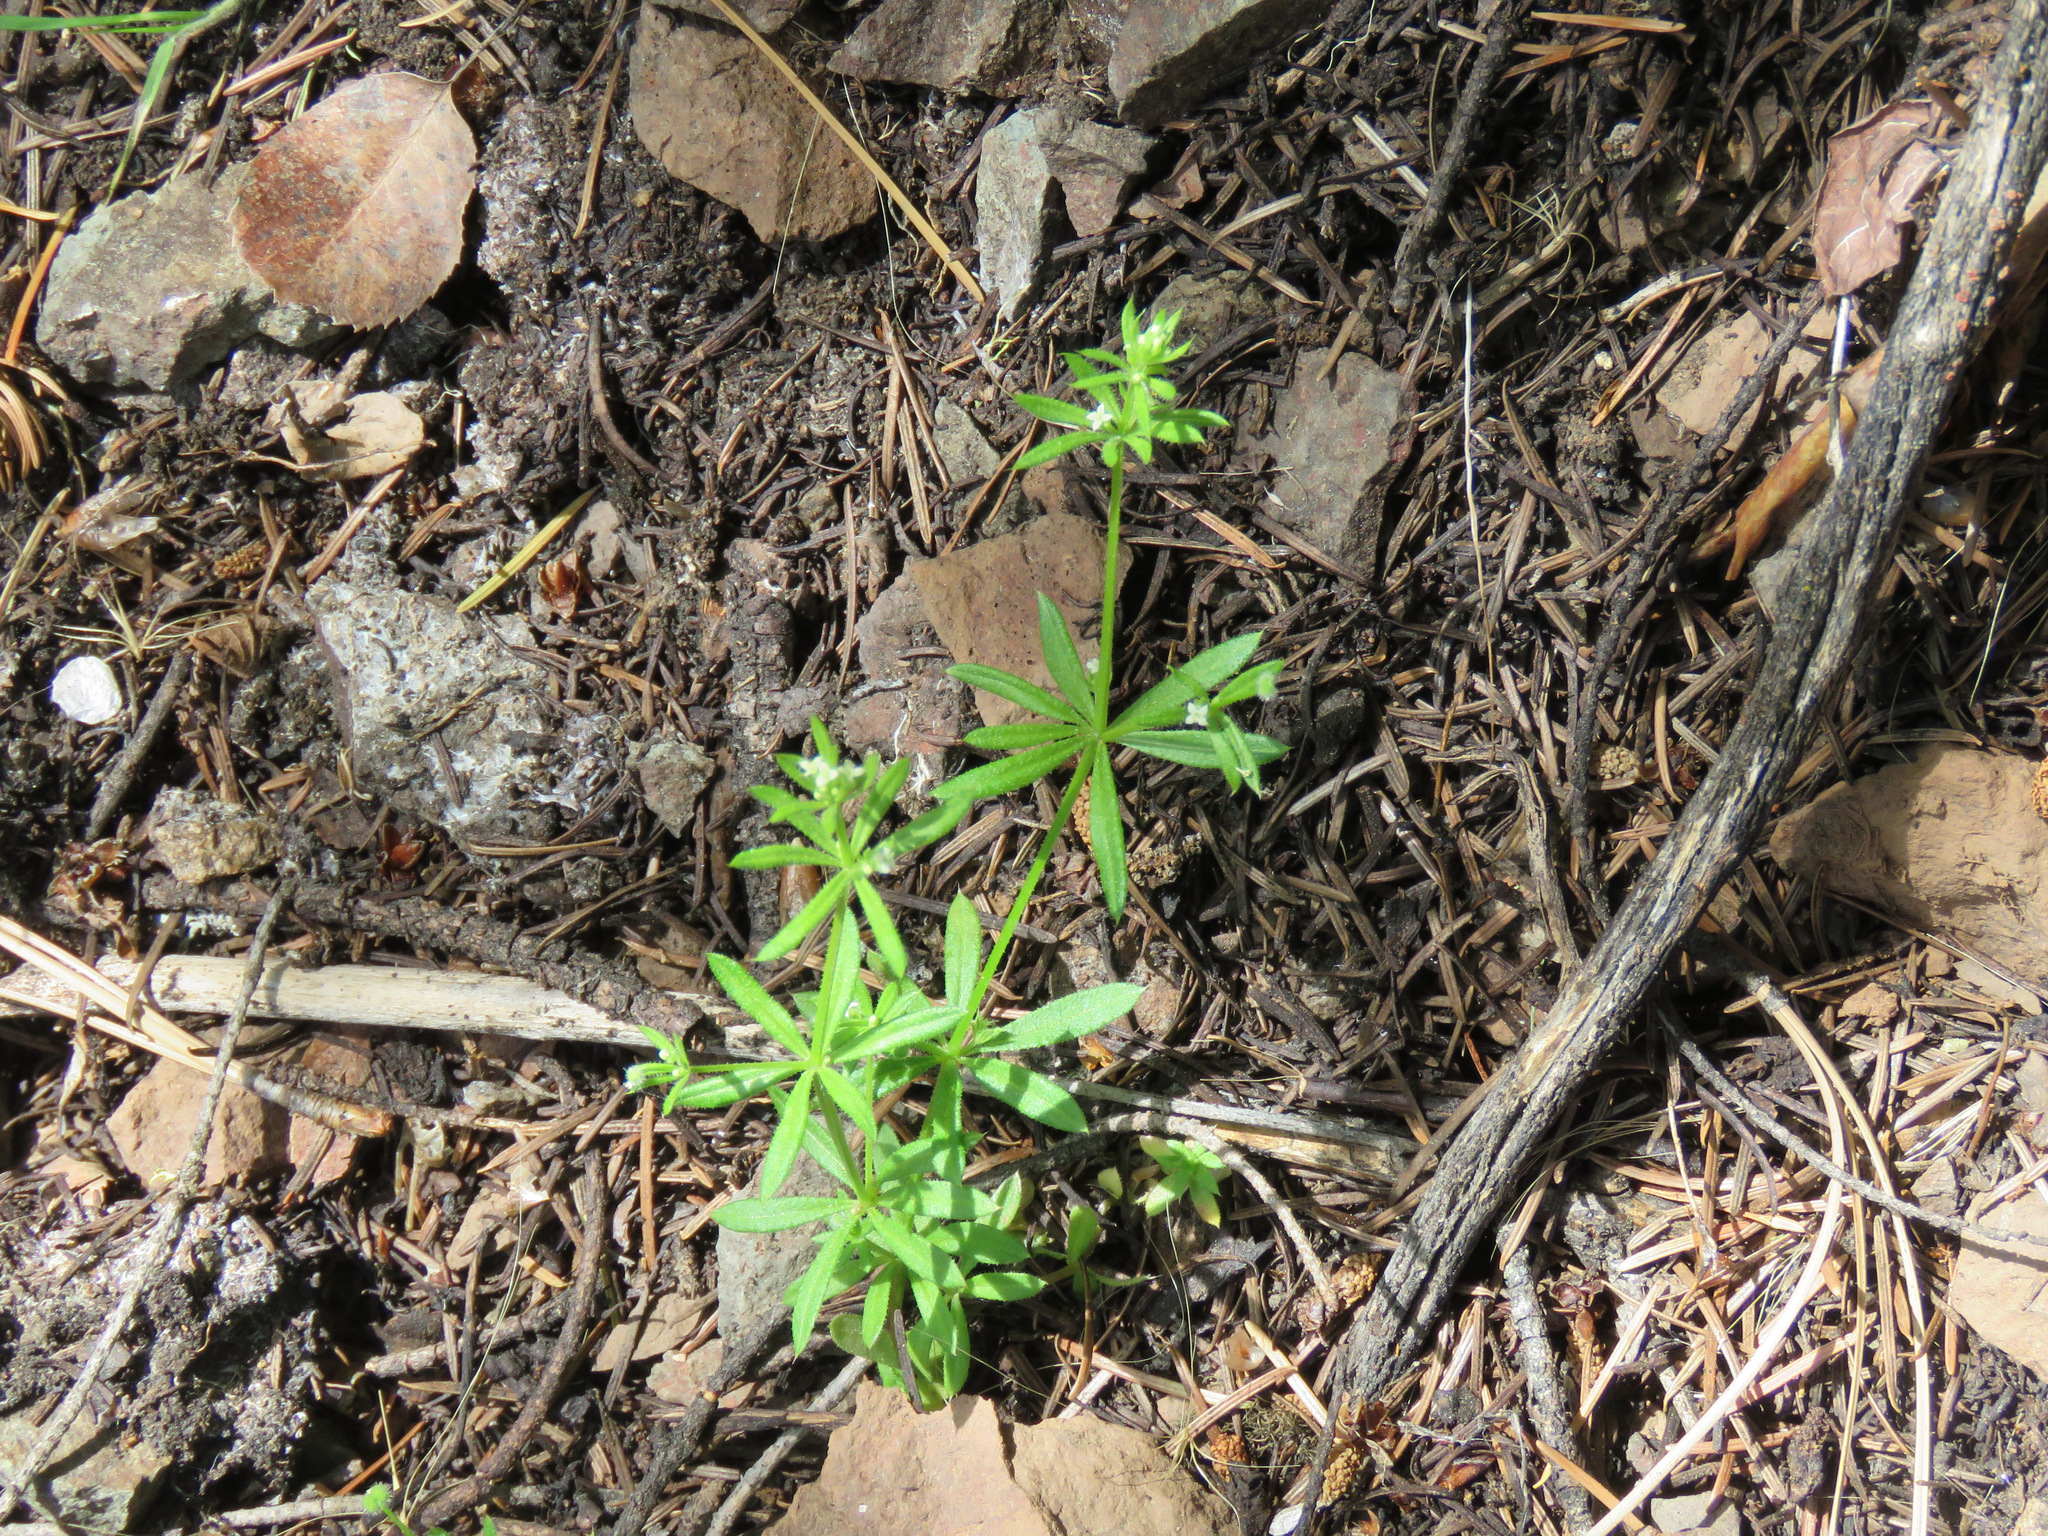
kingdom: Plantae
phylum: Tracheophyta
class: Magnoliopsida
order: Gentianales
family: Rubiaceae
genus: Galium
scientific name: Galium aparine
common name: Cleavers
